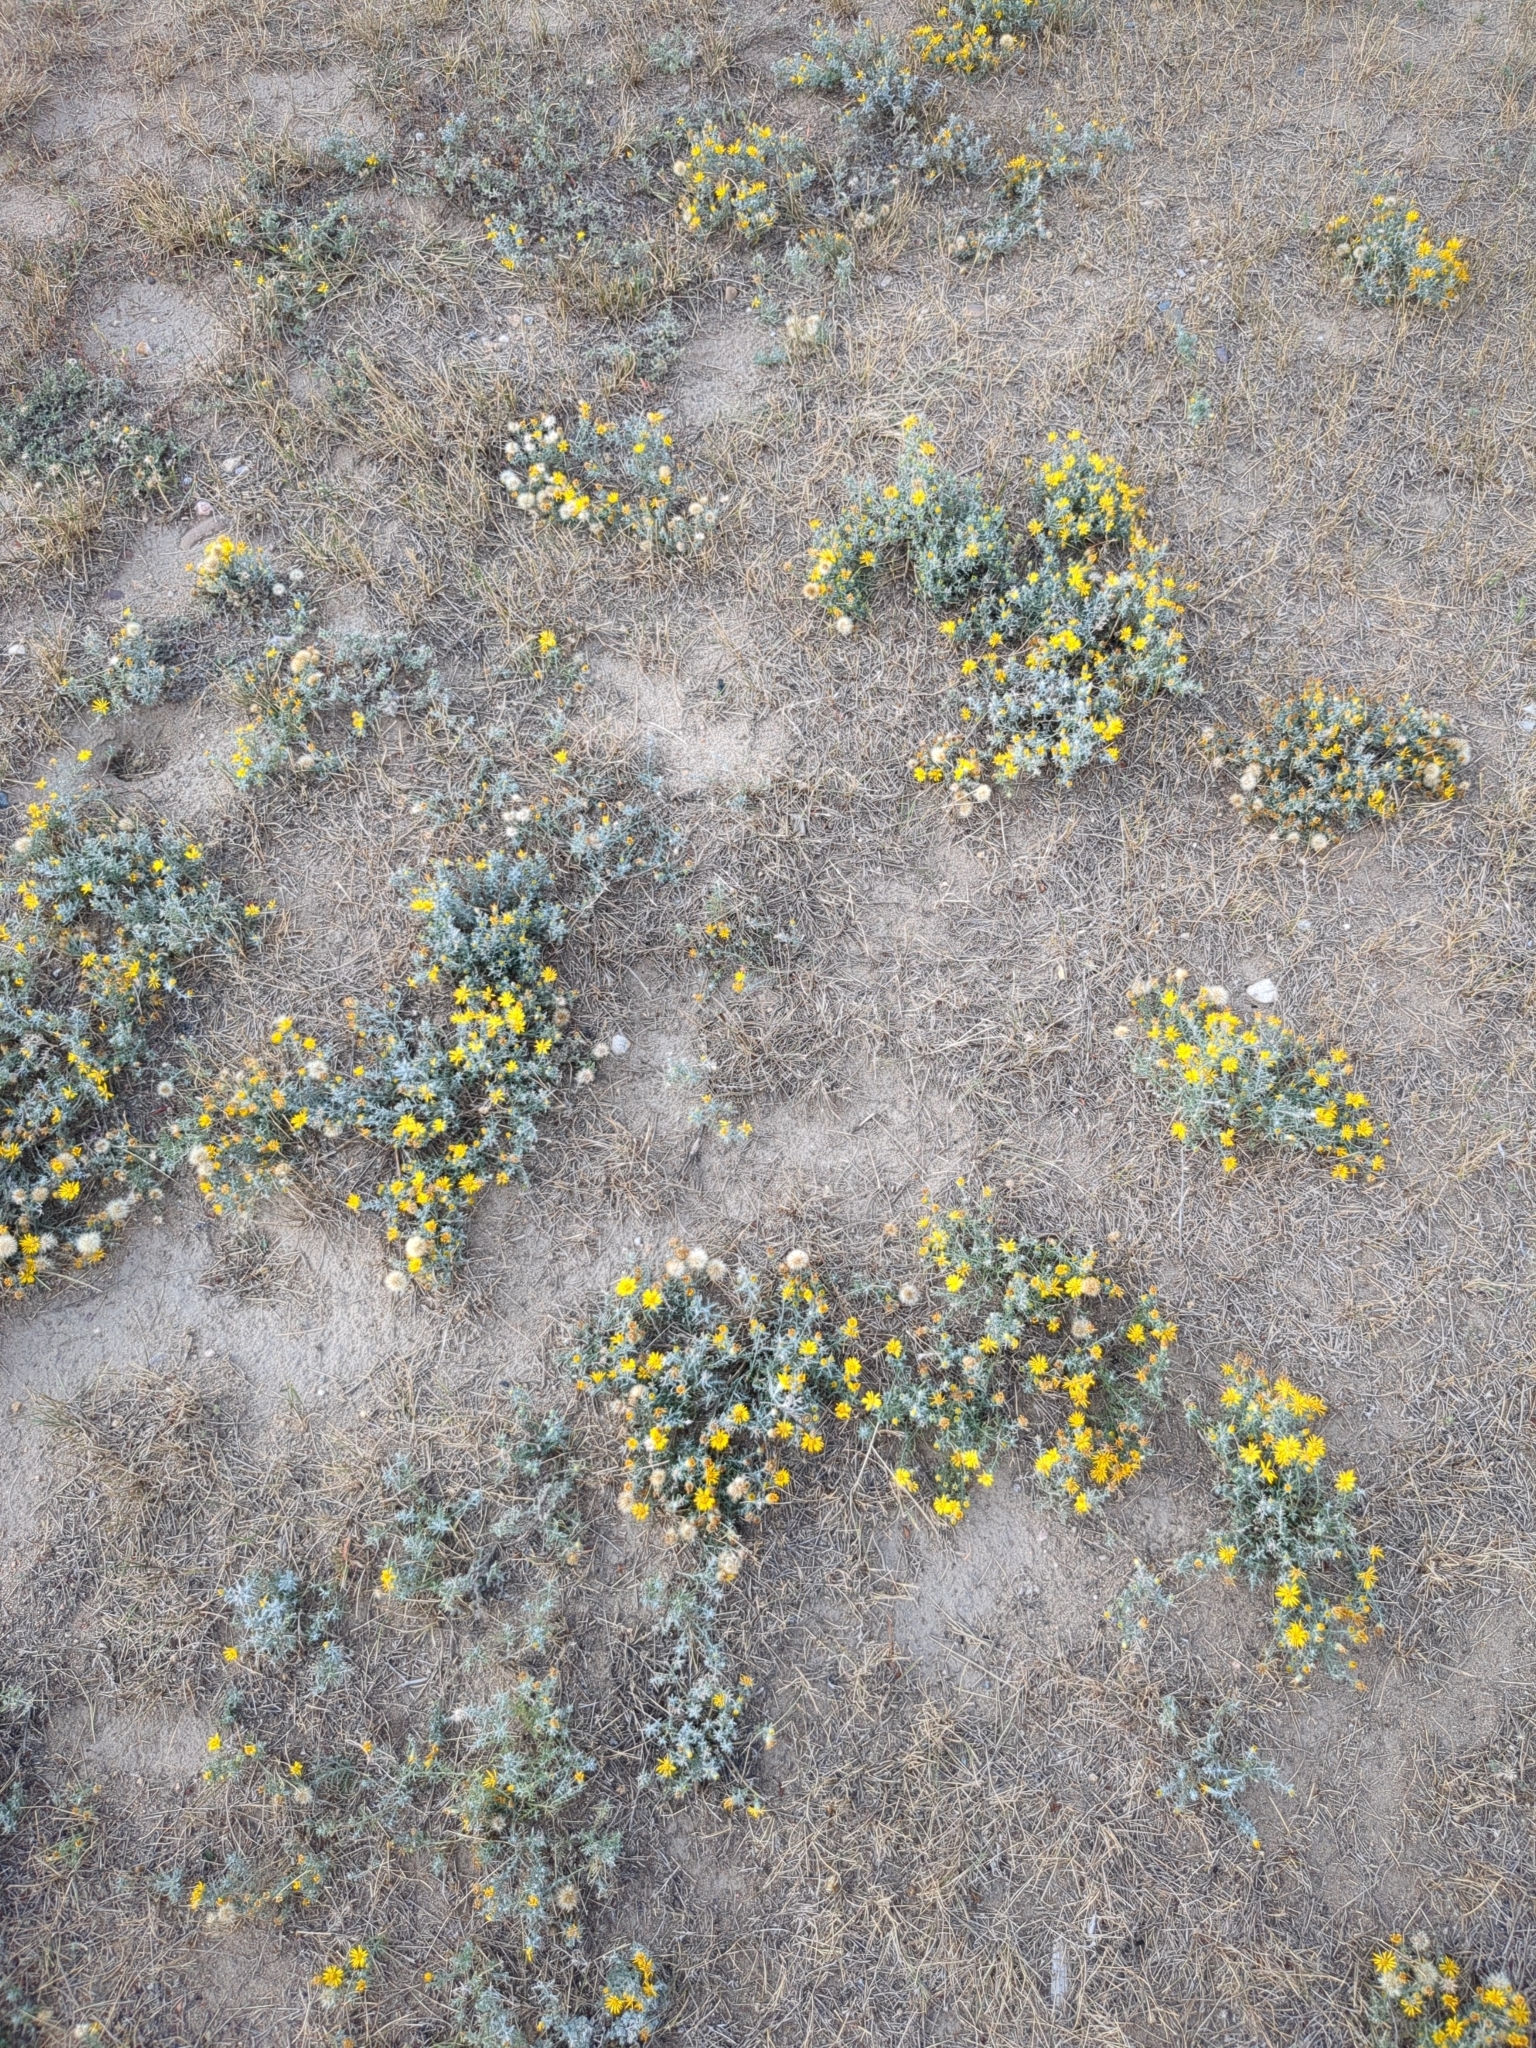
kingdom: Plantae
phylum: Tracheophyta
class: Magnoliopsida
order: Asterales
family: Asteraceae
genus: Xanthisma
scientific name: Xanthisma spinulosum
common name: Spiny goldenweed
